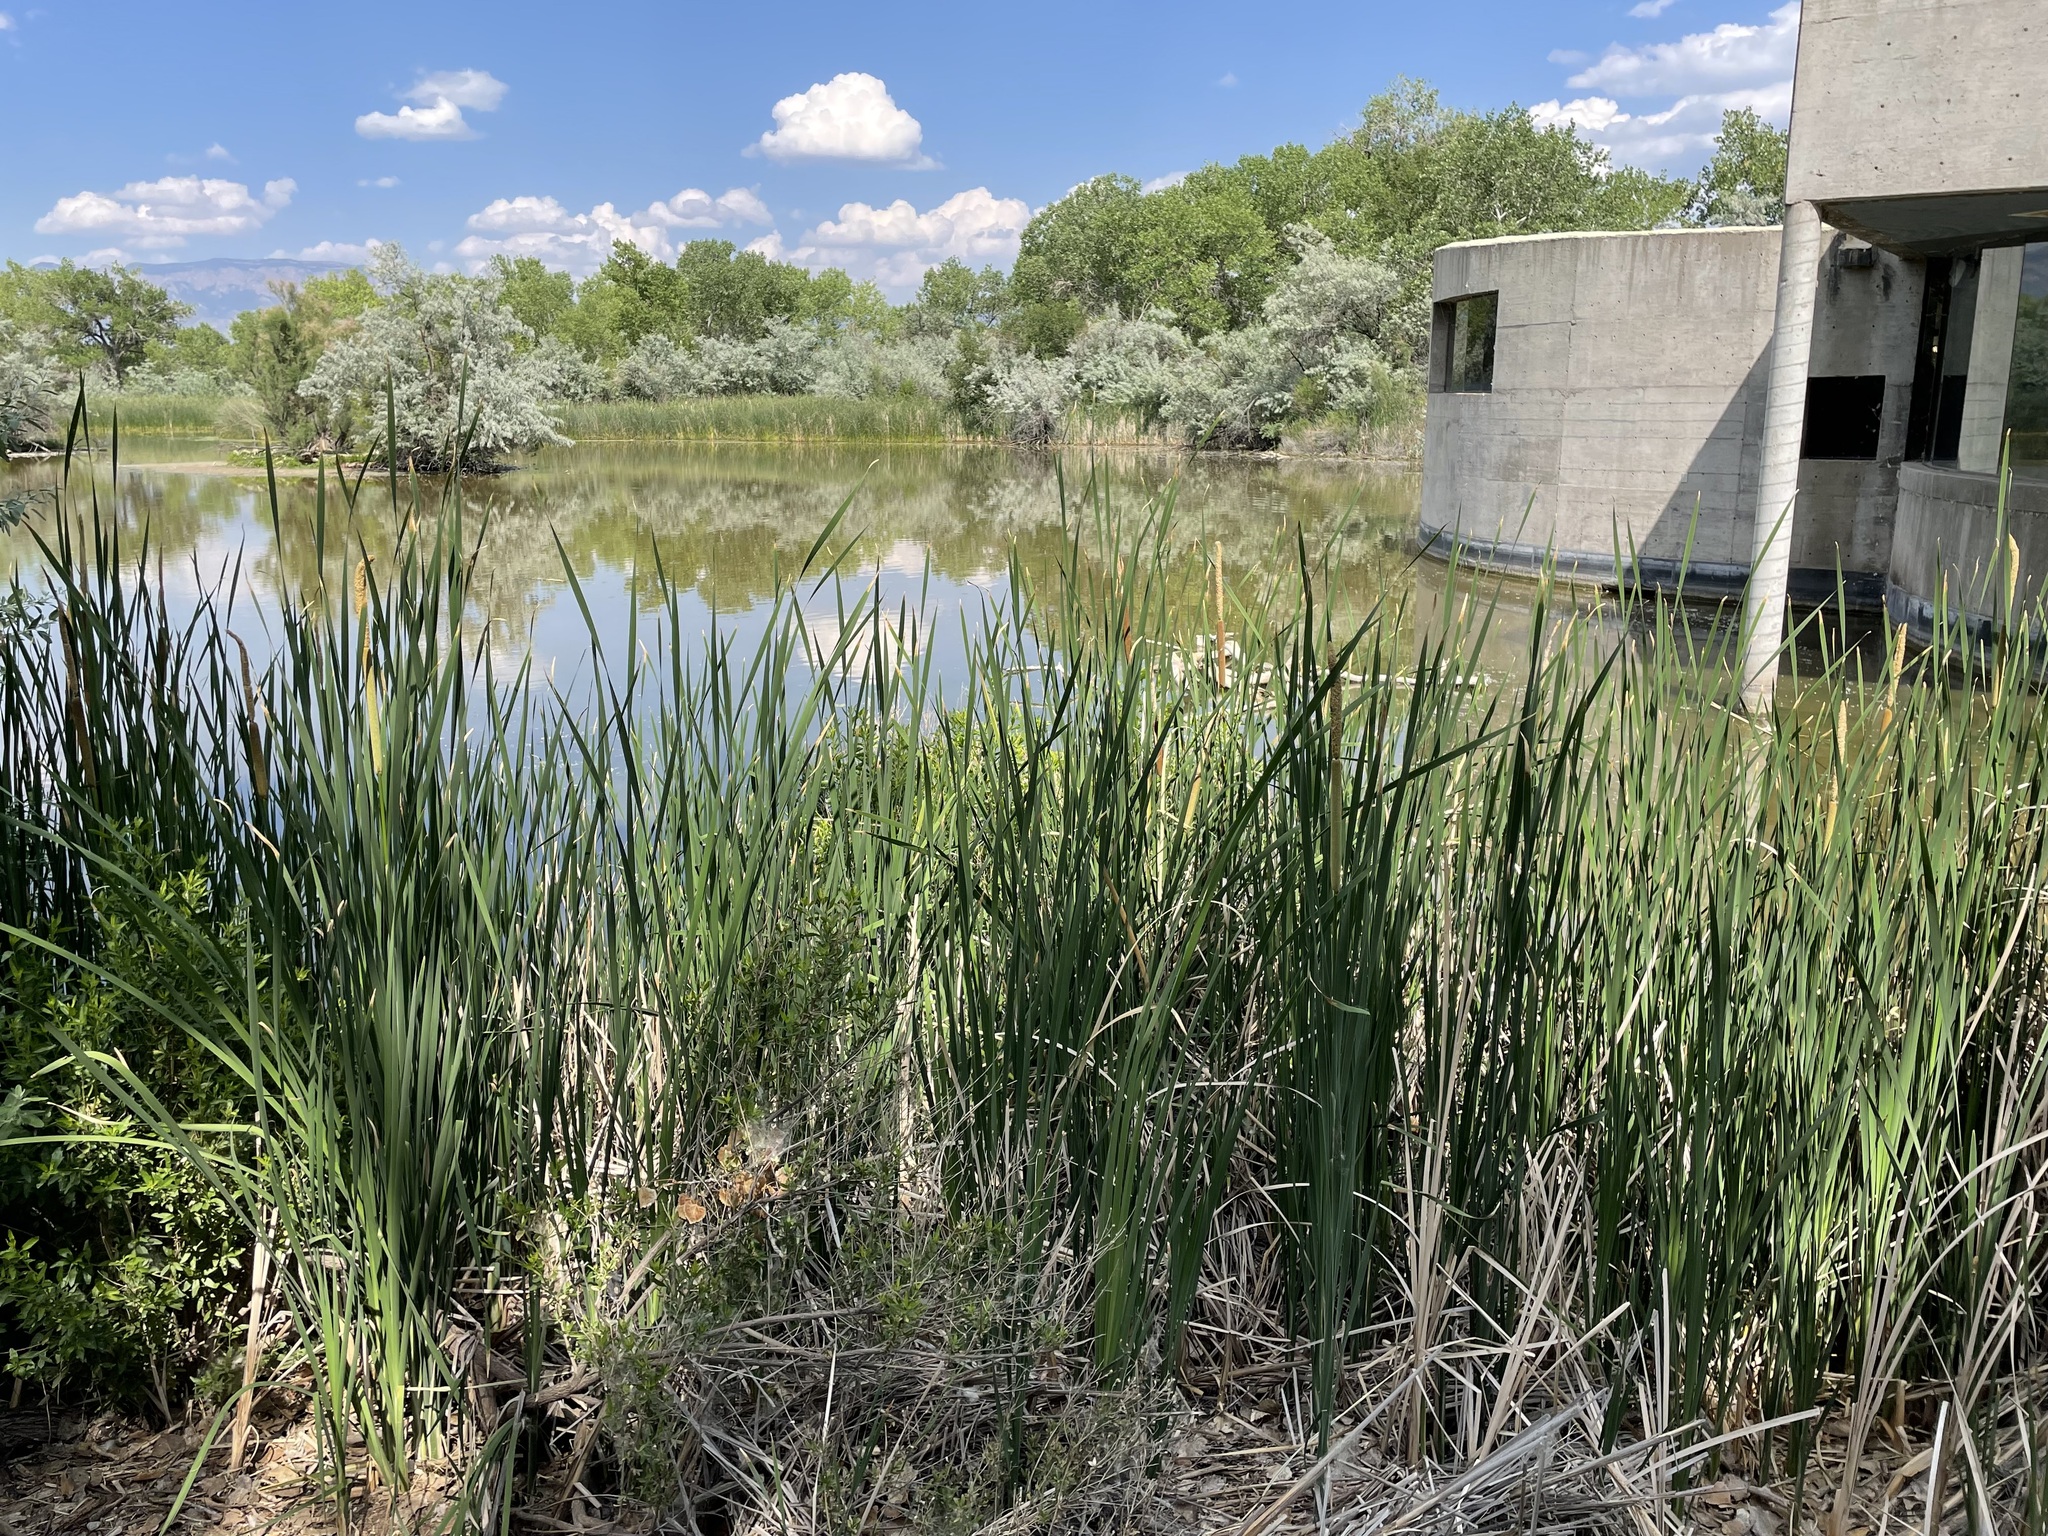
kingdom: Plantae
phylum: Tracheophyta
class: Liliopsida
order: Poales
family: Typhaceae
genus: Typha
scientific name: Typha latifolia
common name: Broadleaf cattail
